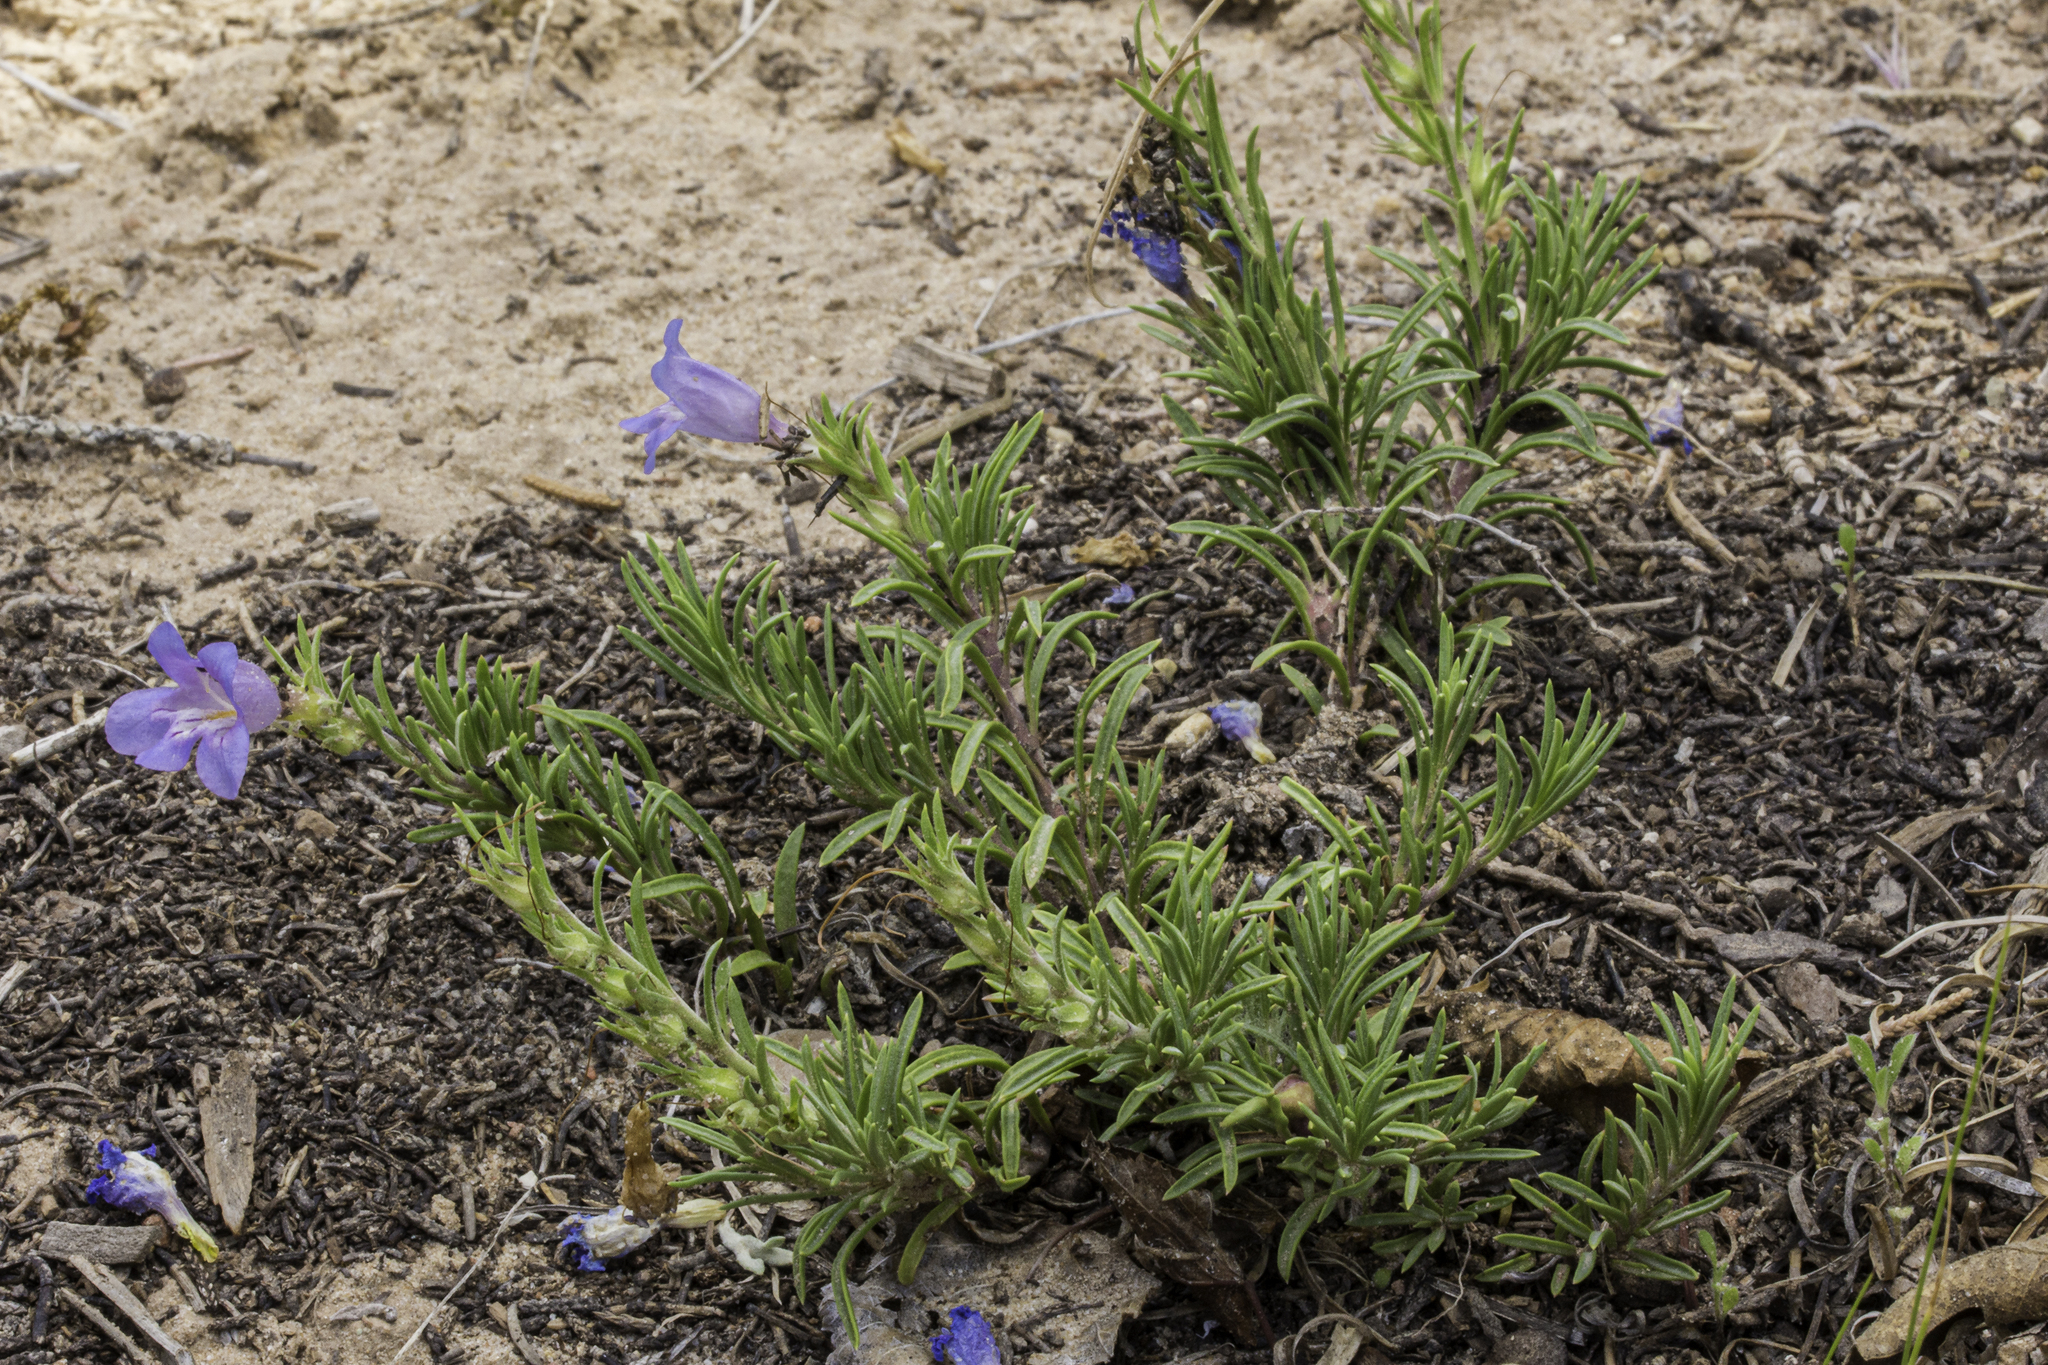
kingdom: Plantae
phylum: Tracheophyta
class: Magnoliopsida
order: Lamiales
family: Plantaginaceae
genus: Penstemon
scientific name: Penstemon crandallii
